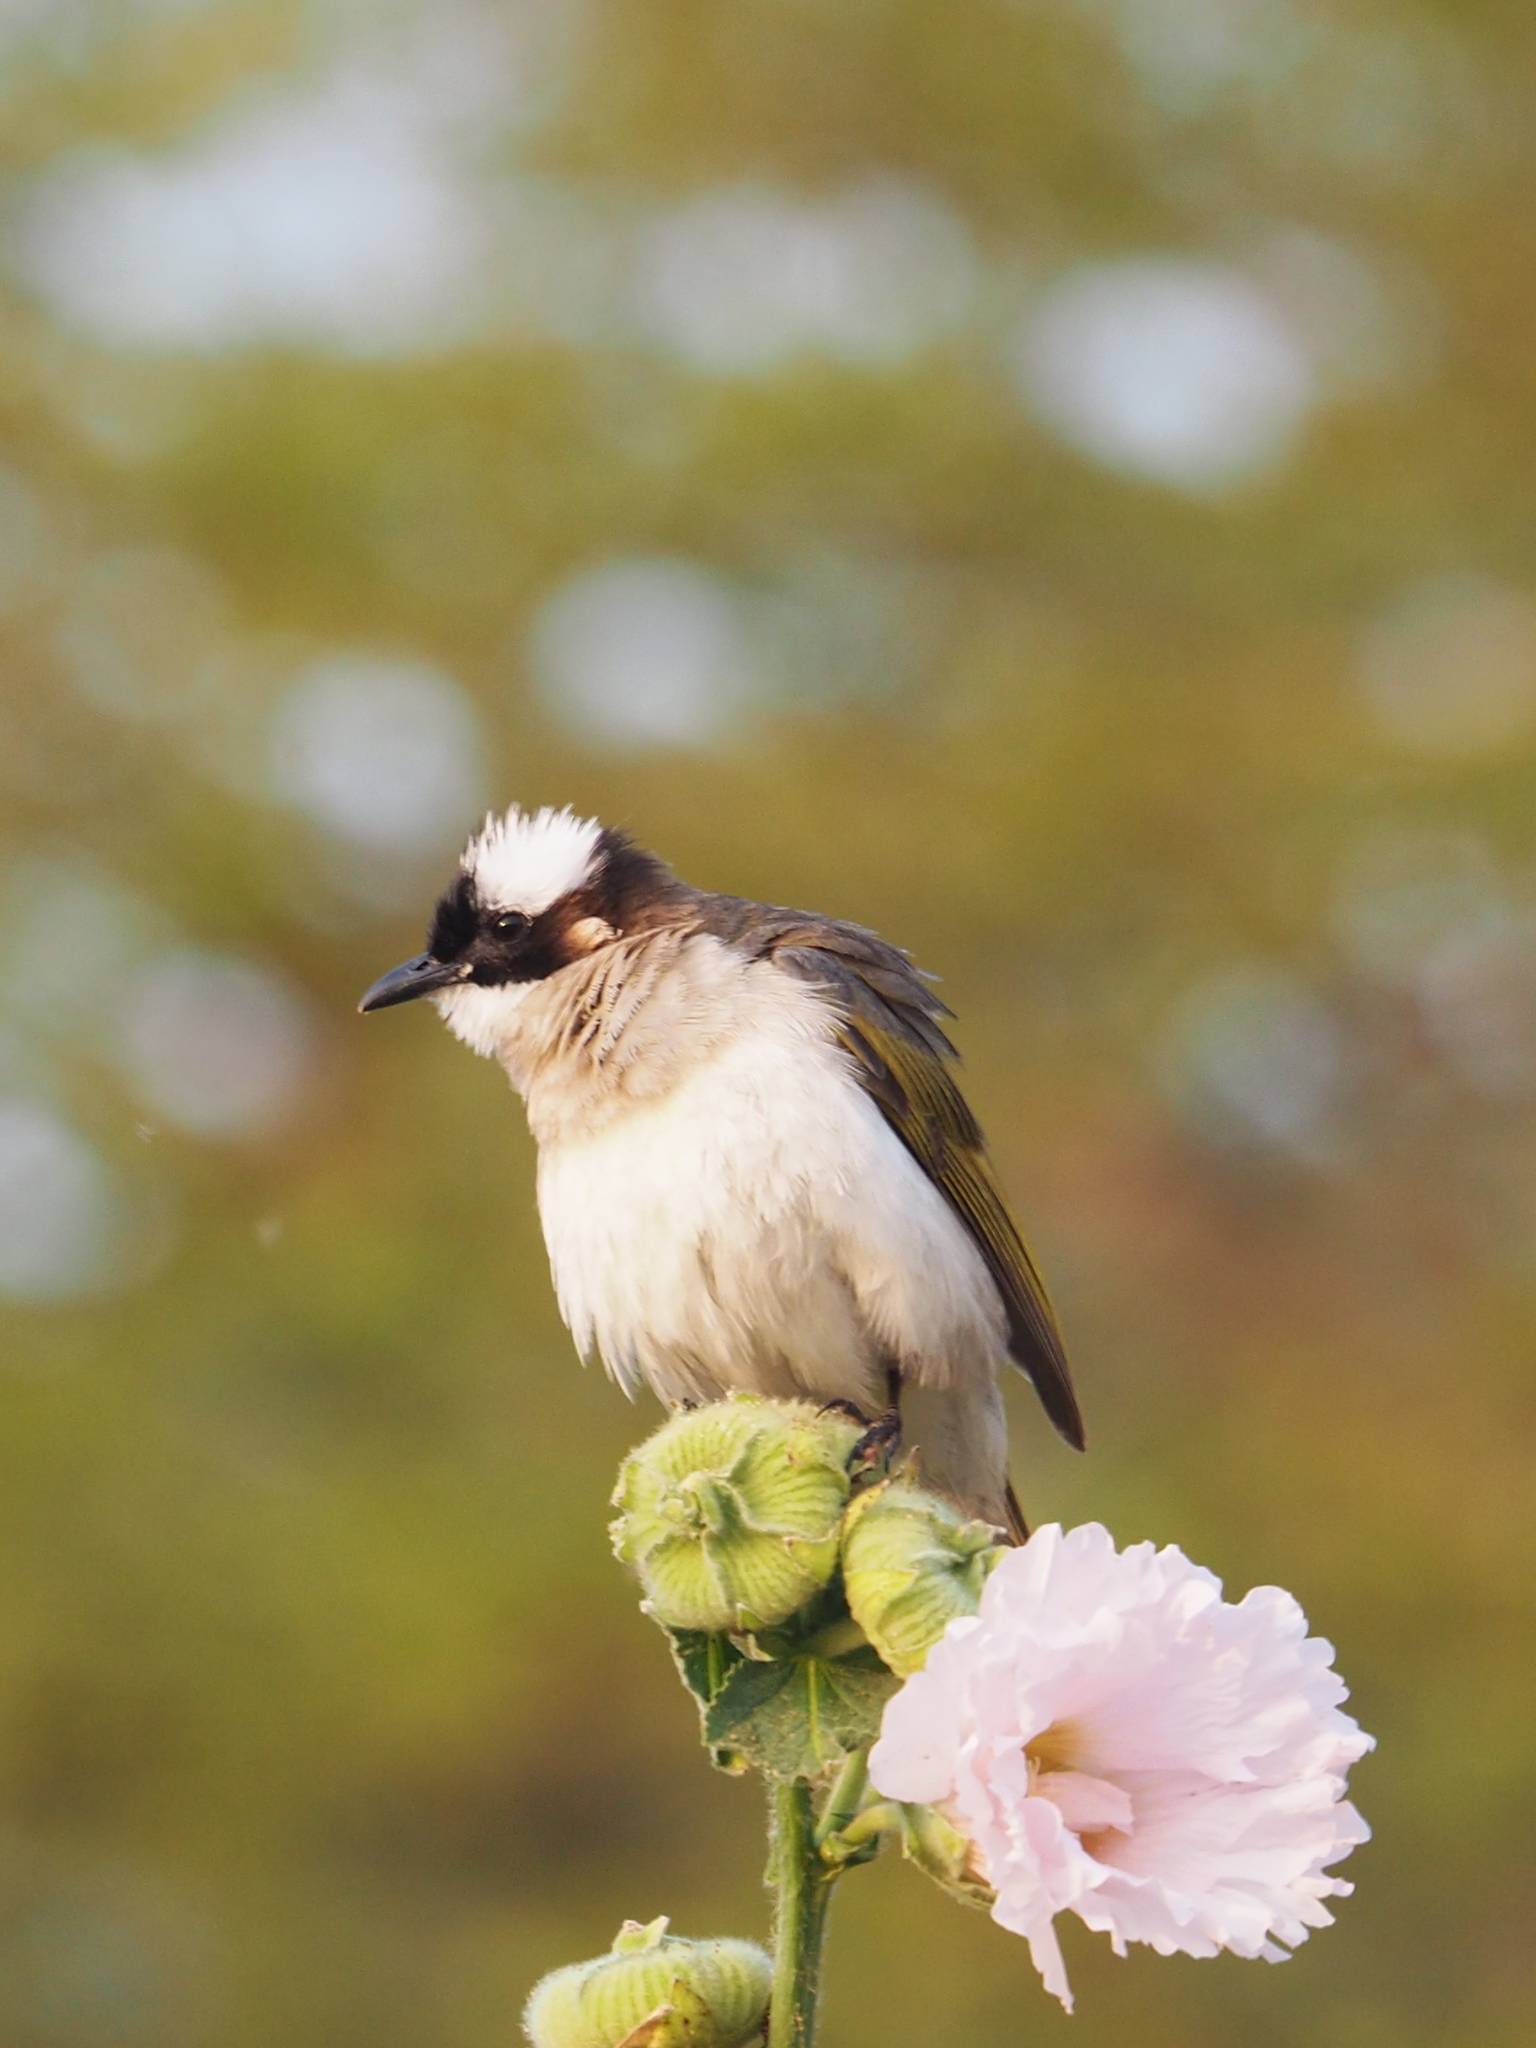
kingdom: Animalia
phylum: Chordata
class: Aves
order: Passeriformes
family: Pycnonotidae
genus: Pycnonotus
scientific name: Pycnonotus sinensis
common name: Light-vented bulbul
